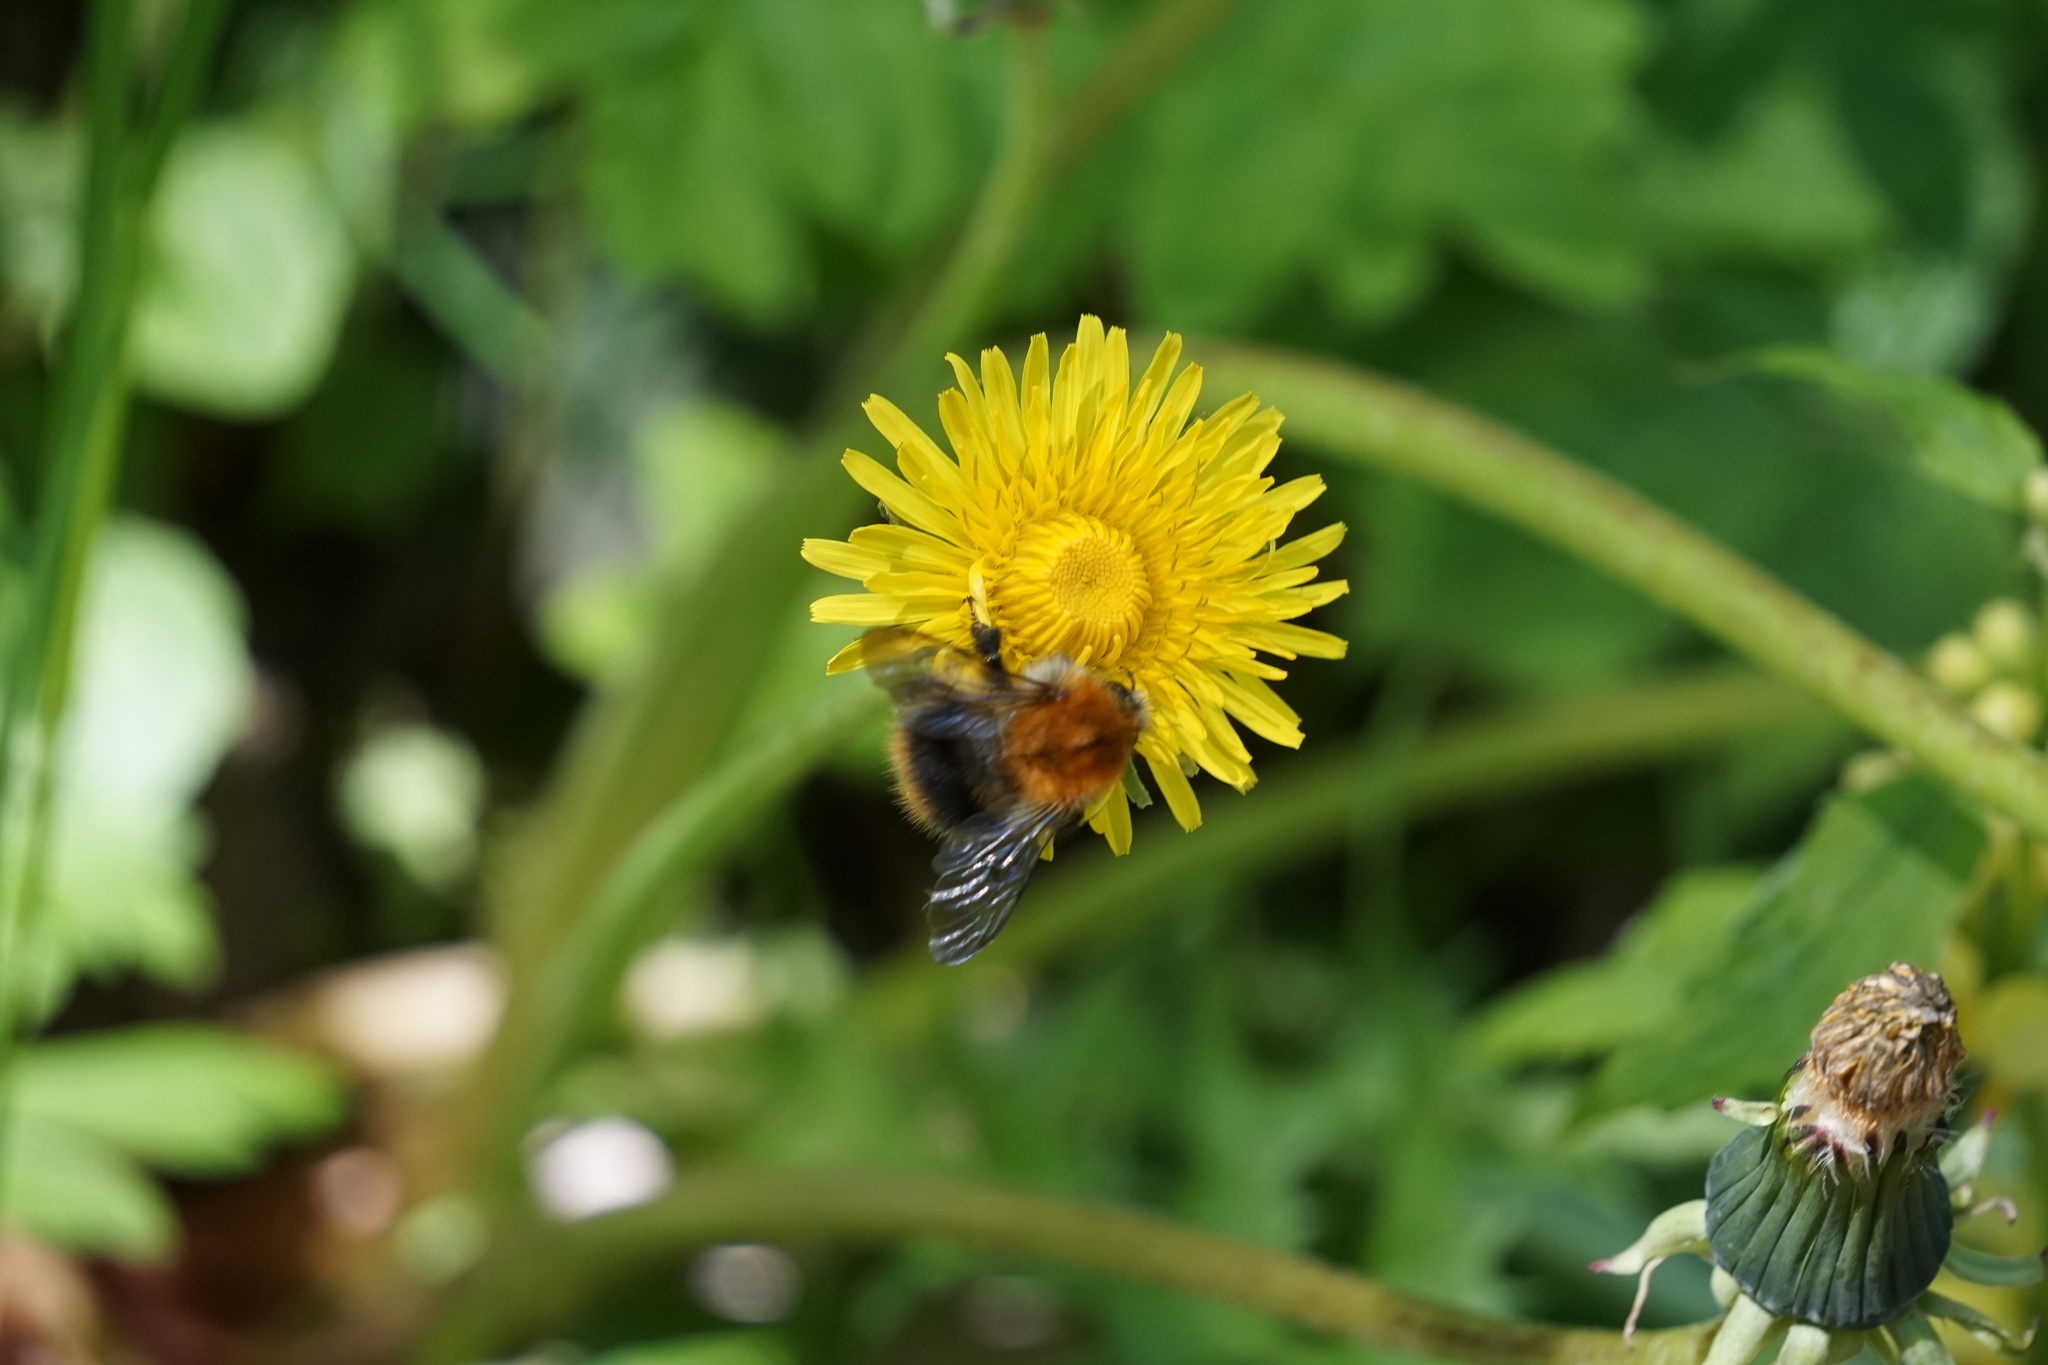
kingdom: Animalia
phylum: Arthropoda
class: Insecta
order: Hymenoptera
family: Apidae
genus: Bombus
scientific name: Bombus pascuorum
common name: Common carder bee
